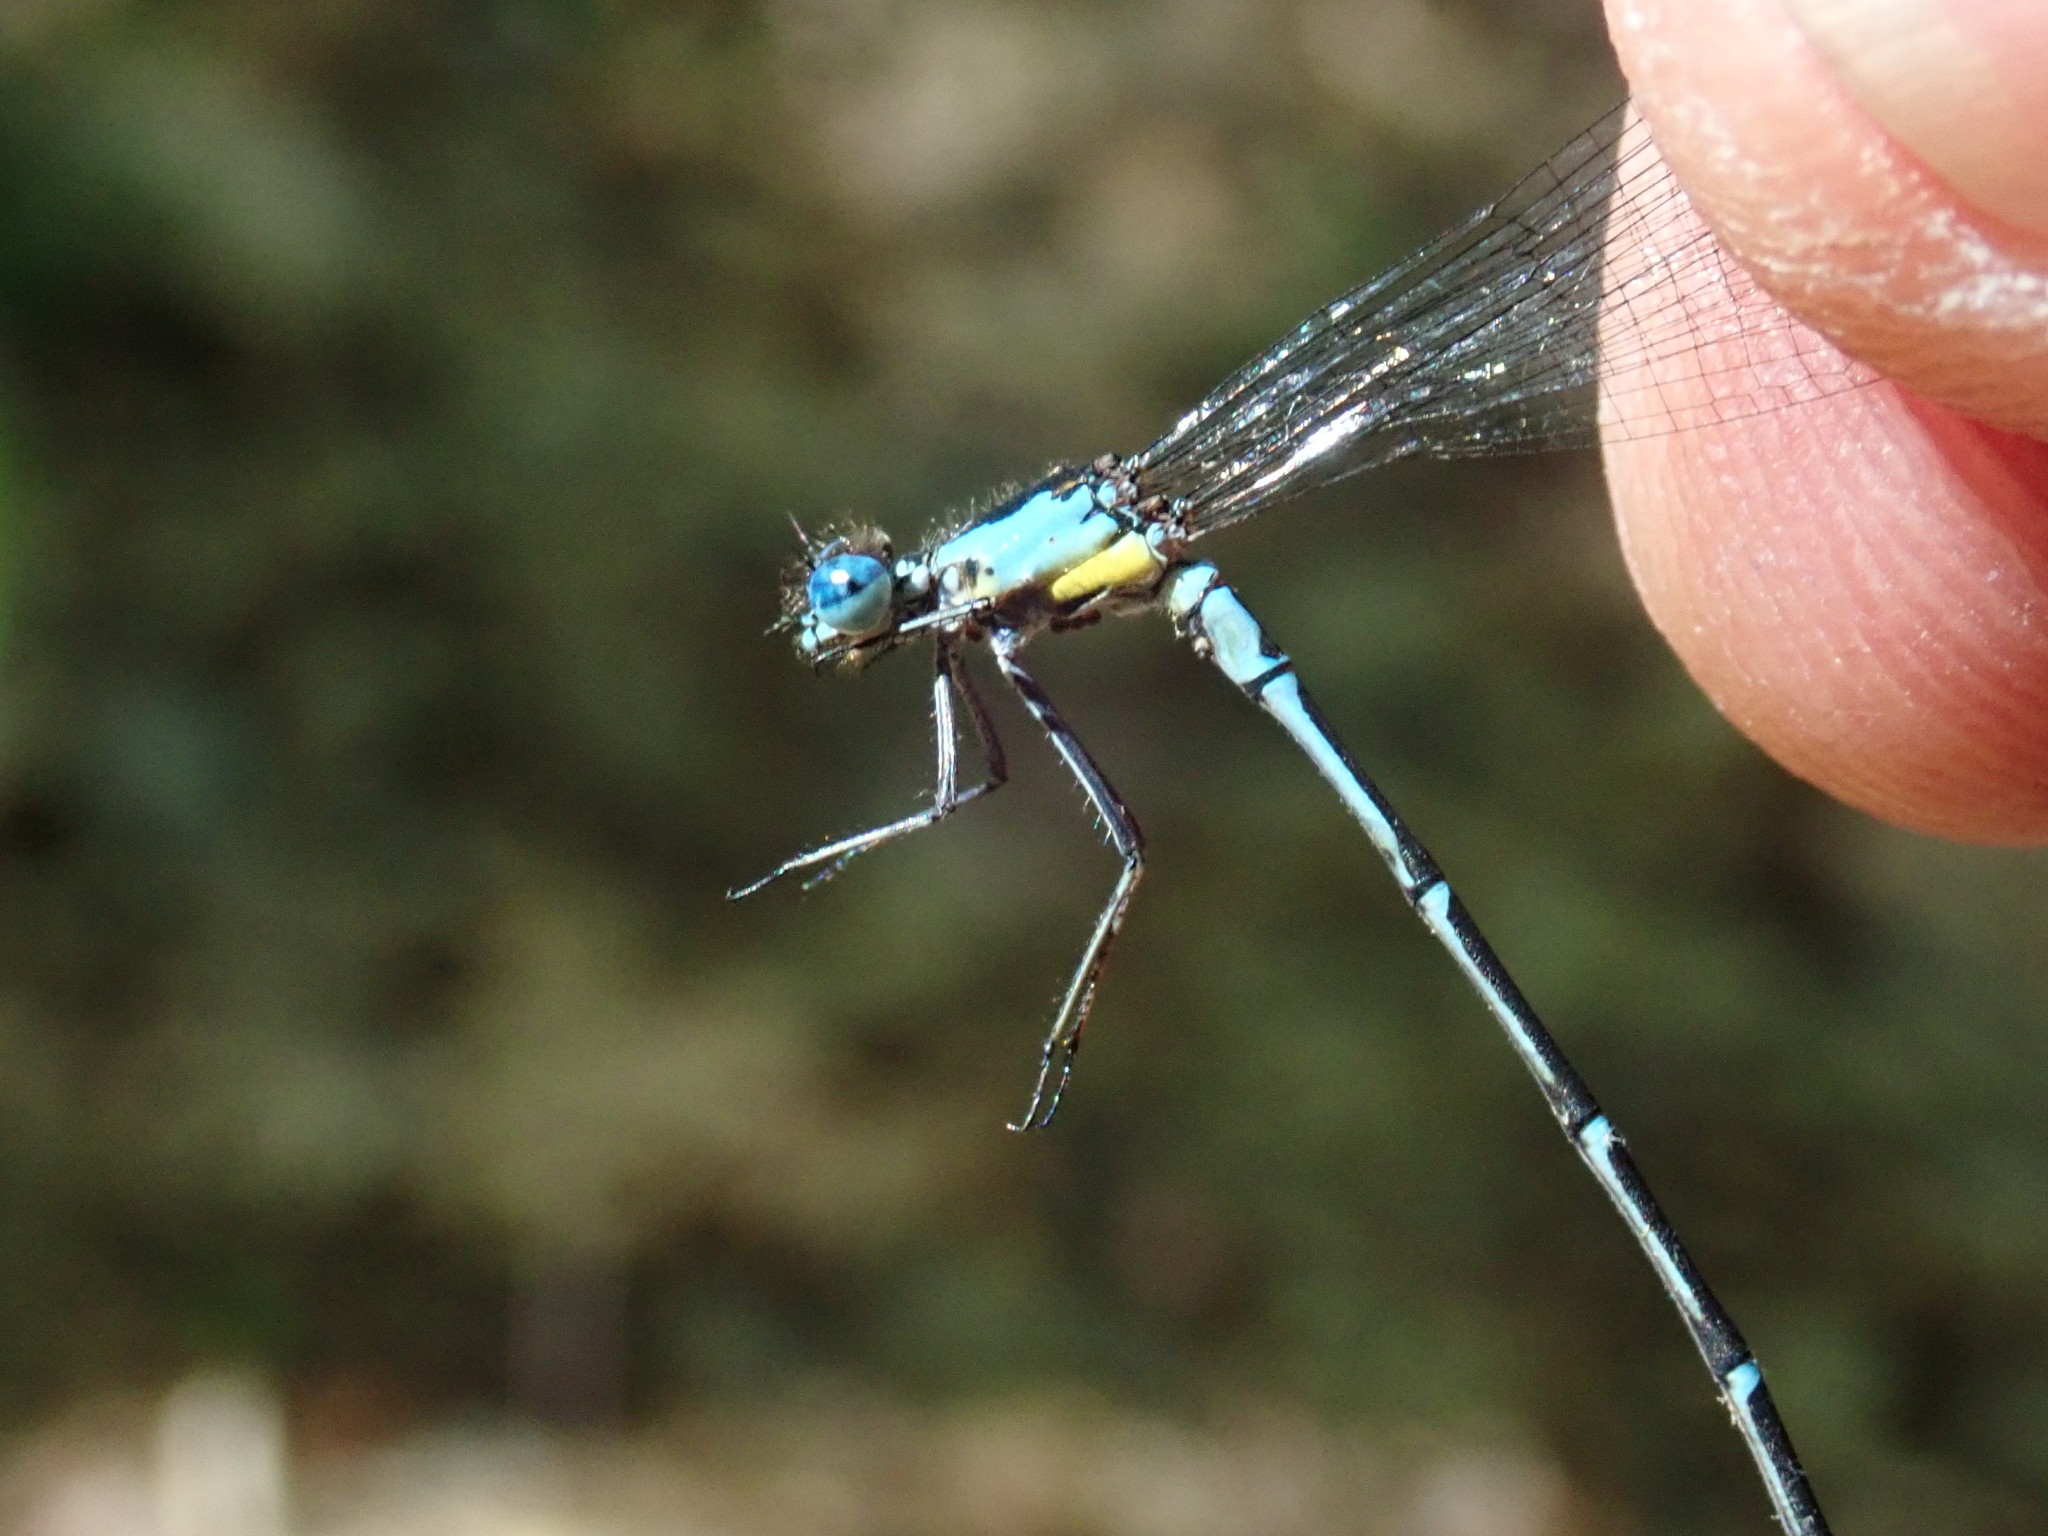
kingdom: Animalia
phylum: Arthropoda
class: Insecta
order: Odonata
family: Coenagrionidae
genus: Chromagrion
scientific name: Chromagrion conditum
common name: Aurora damsel
